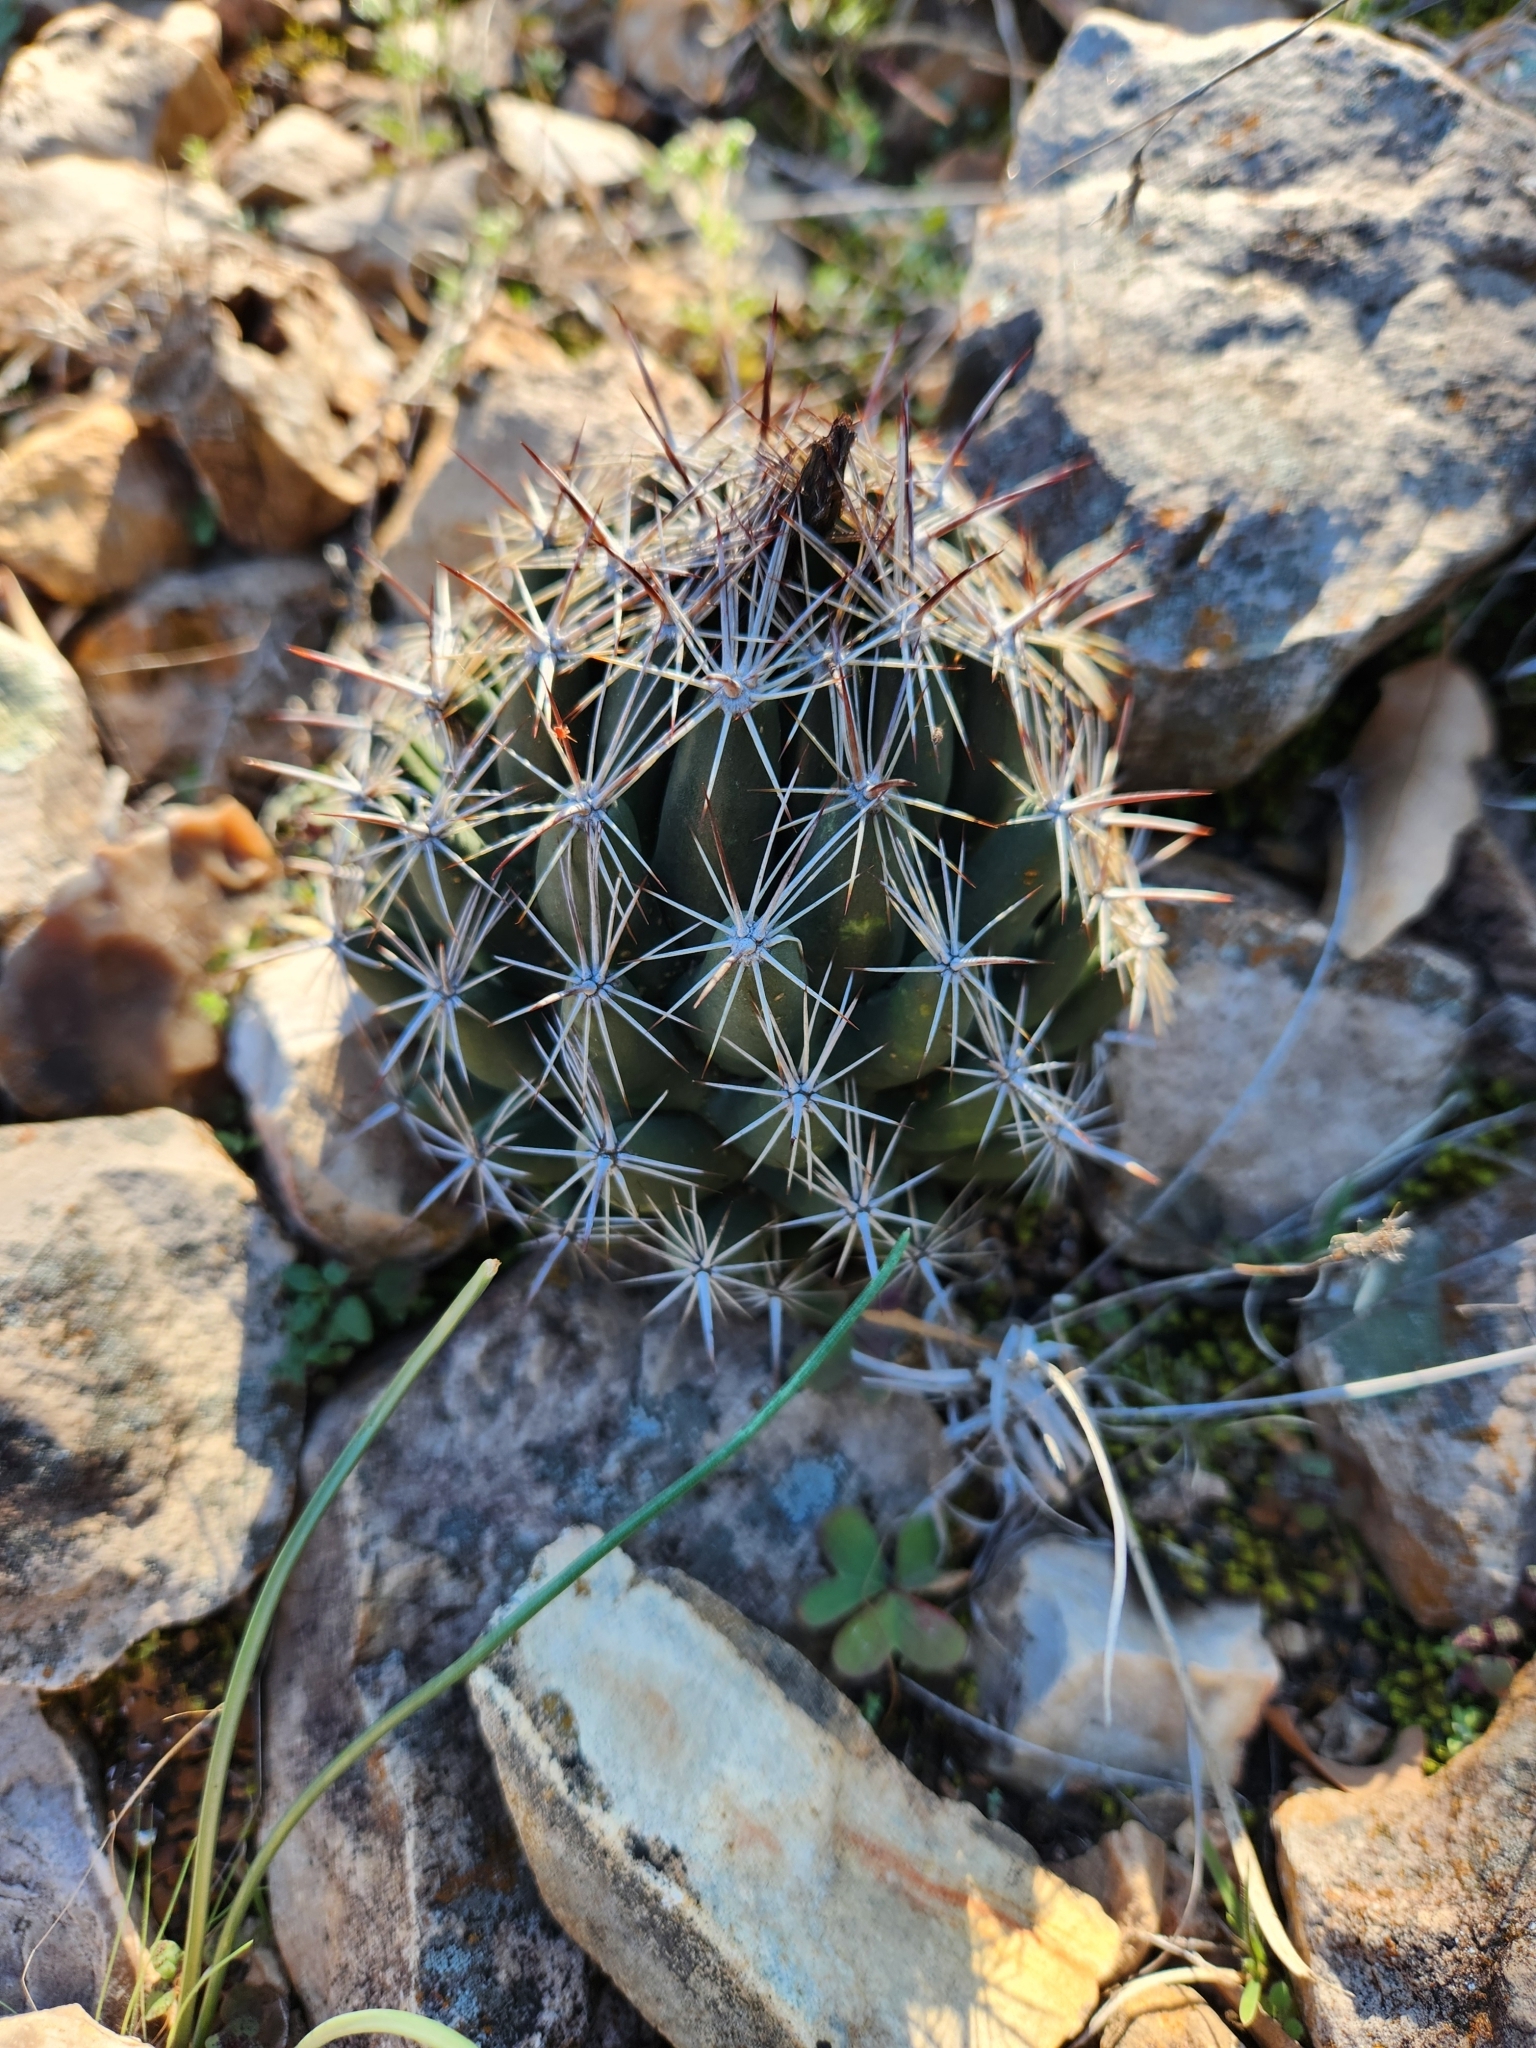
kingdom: Plantae
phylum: Tracheophyta
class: Magnoliopsida
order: Caryophyllales
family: Cactaceae
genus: Coryphantha
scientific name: Coryphantha sulcata
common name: Finger cactus
